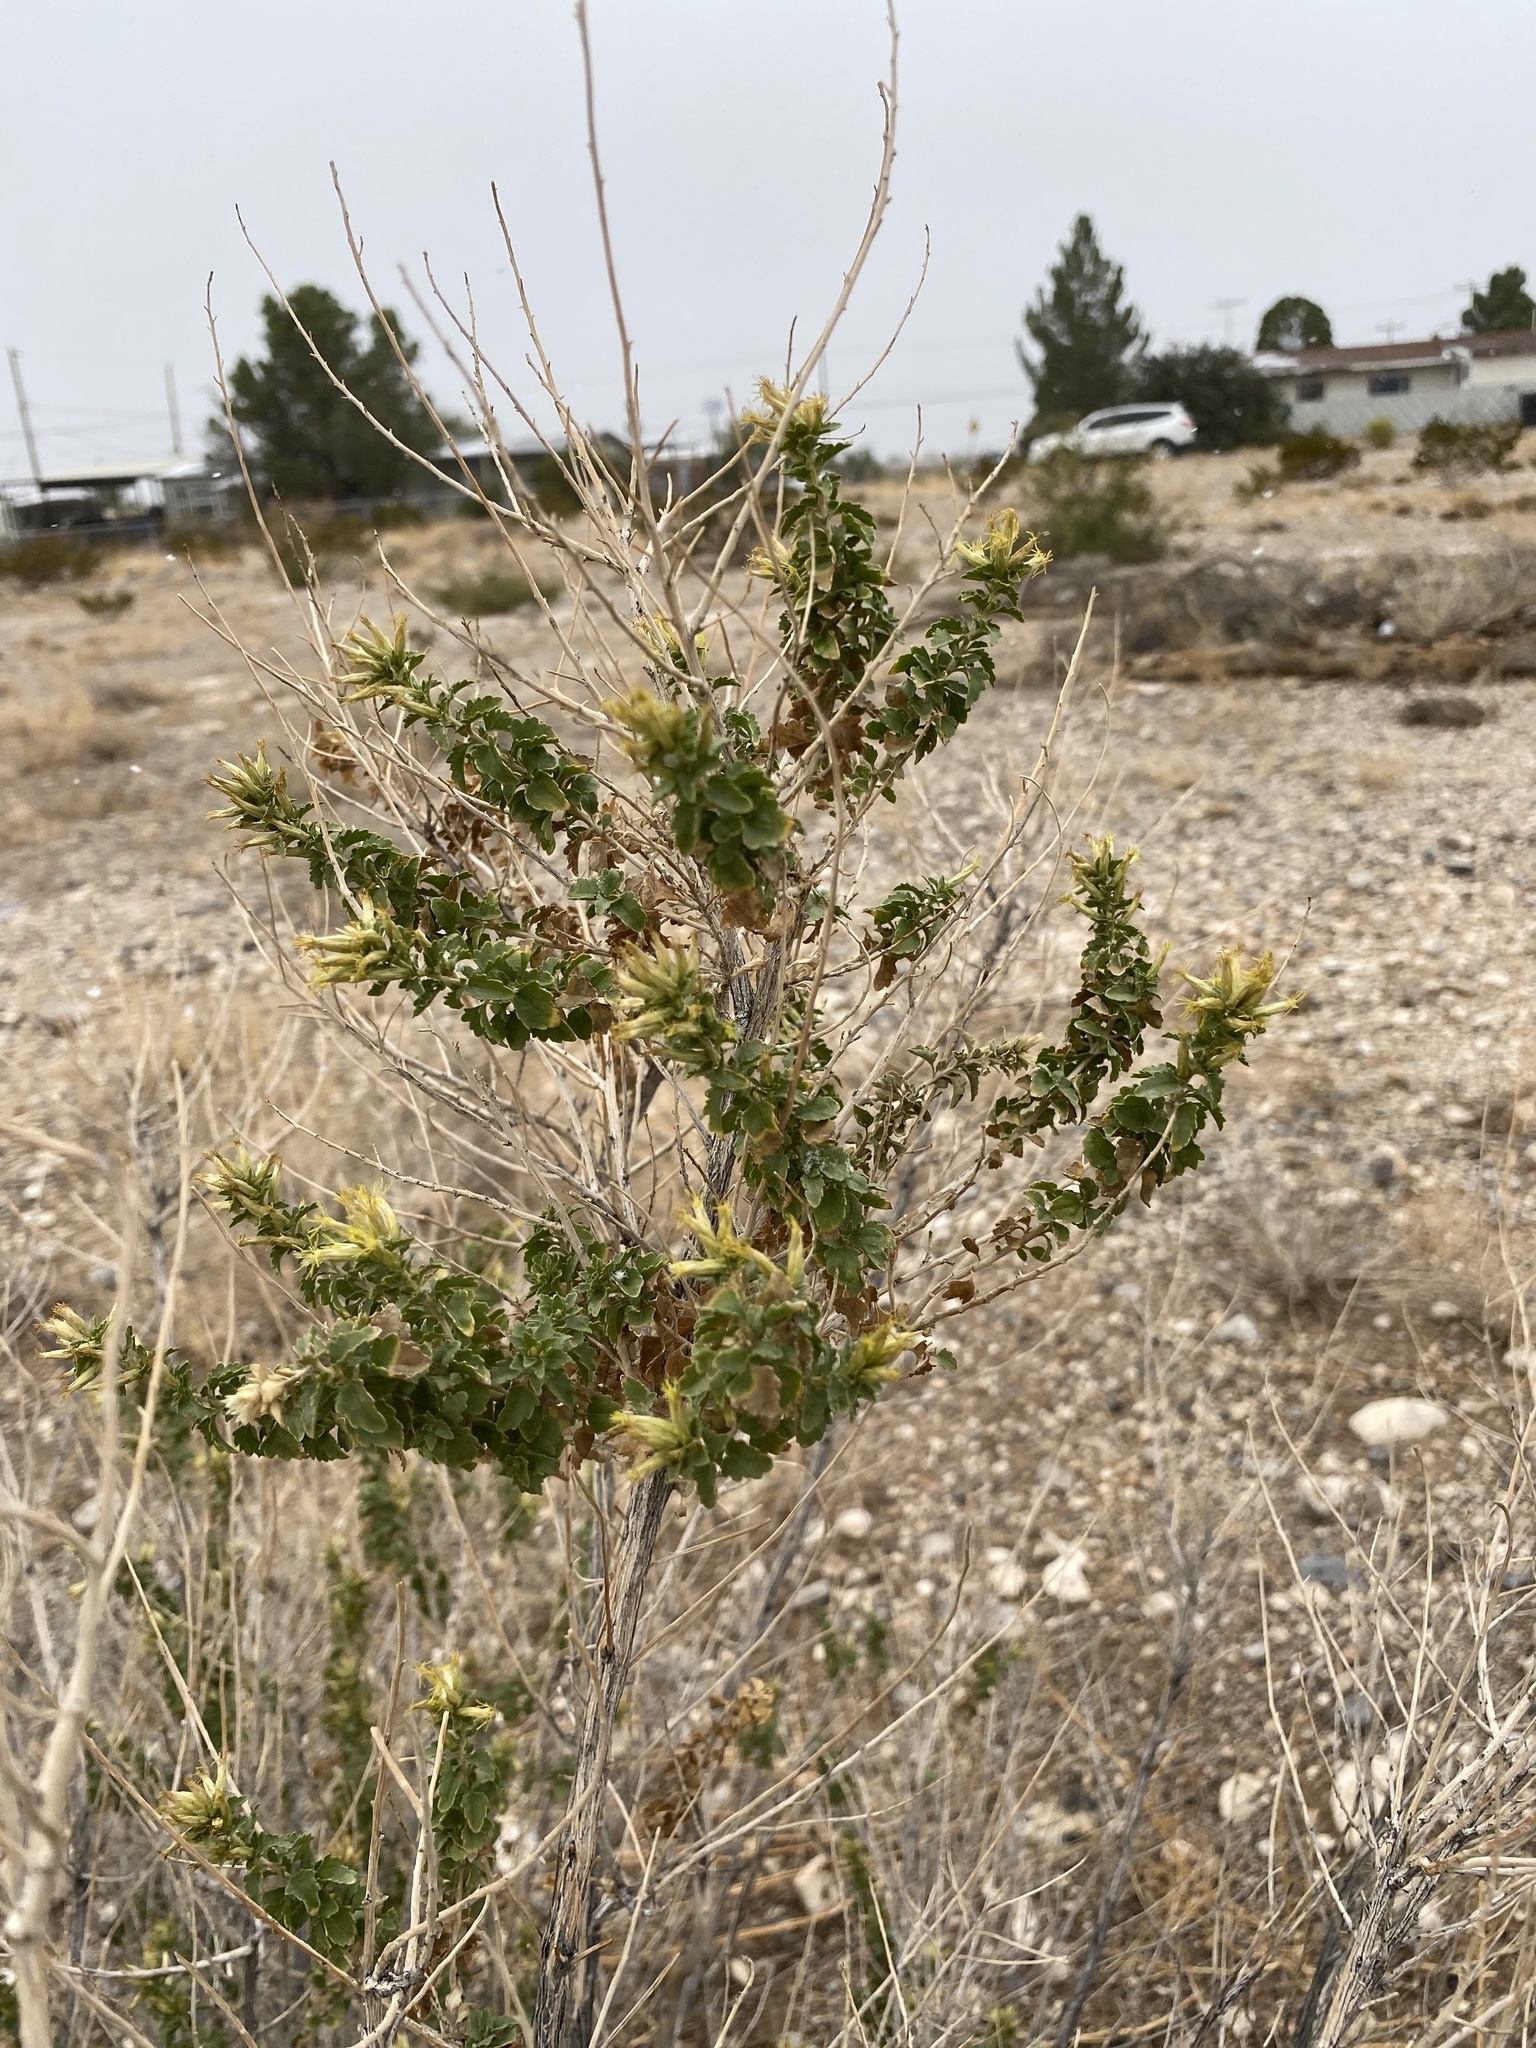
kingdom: Plantae
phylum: Tracheophyta
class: Magnoliopsida
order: Asterales
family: Asteraceae
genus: Brickellia
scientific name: Brickellia laciniata
